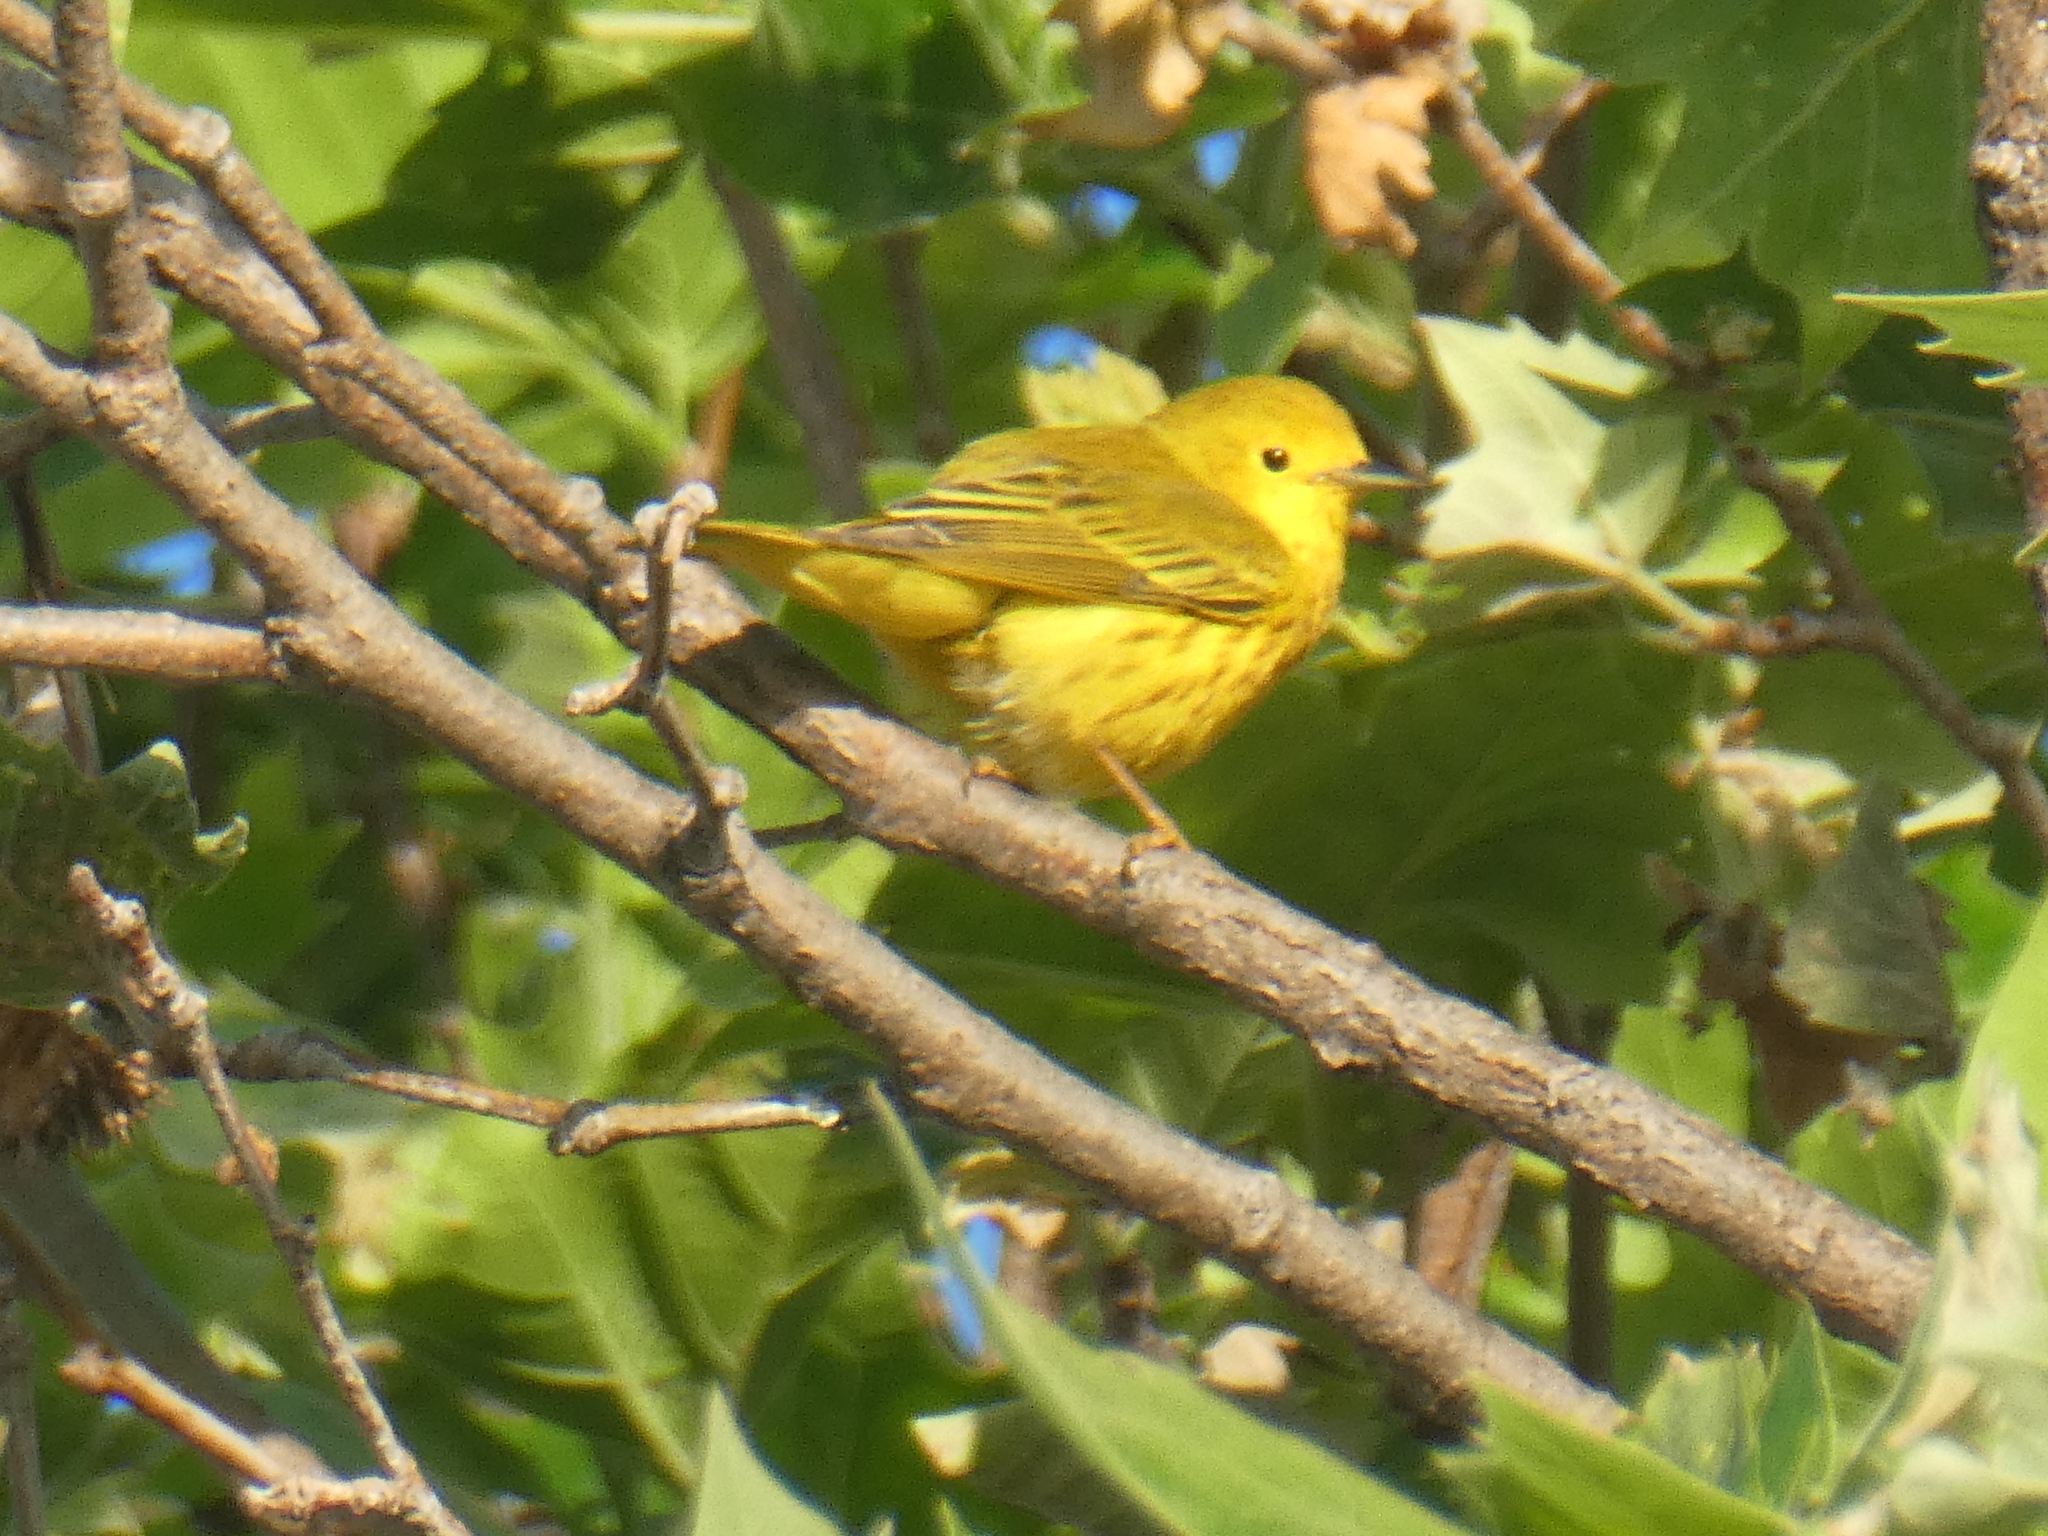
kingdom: Animalia
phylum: Chordata
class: Aves
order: Passeriformes
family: Parulidae
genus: Setophaga
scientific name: Setophaga petechia
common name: Yellow warbler
